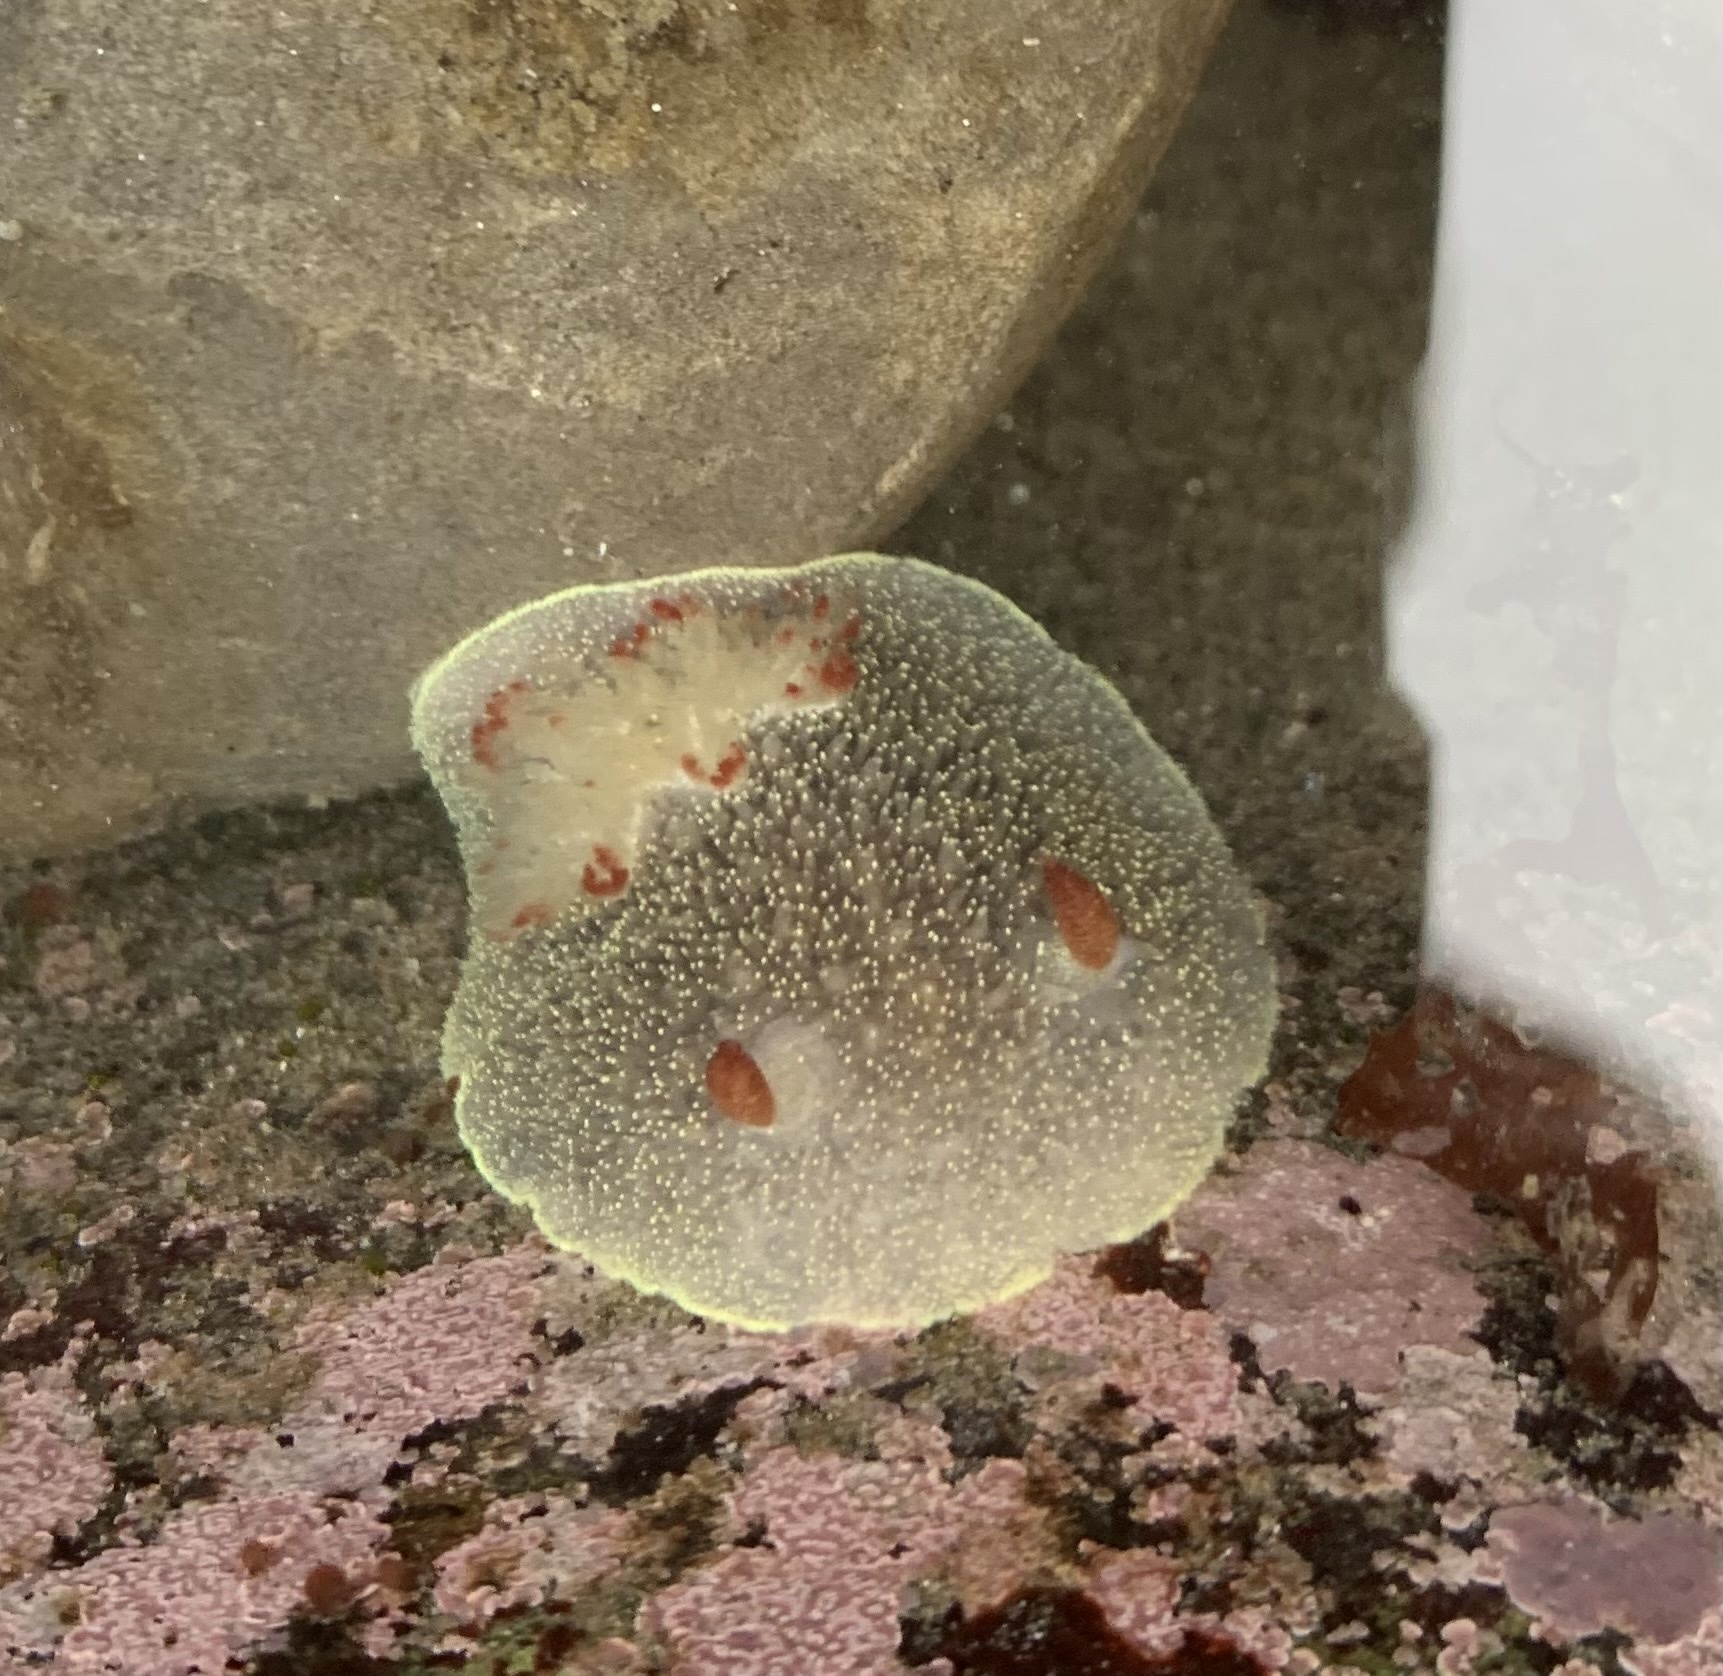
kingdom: Animalia
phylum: Mollusca
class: Gastropoda
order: Nudibranchia
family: Onchidorididae
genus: Acanthodoris
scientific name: Acanthodoris nanaimoensis
